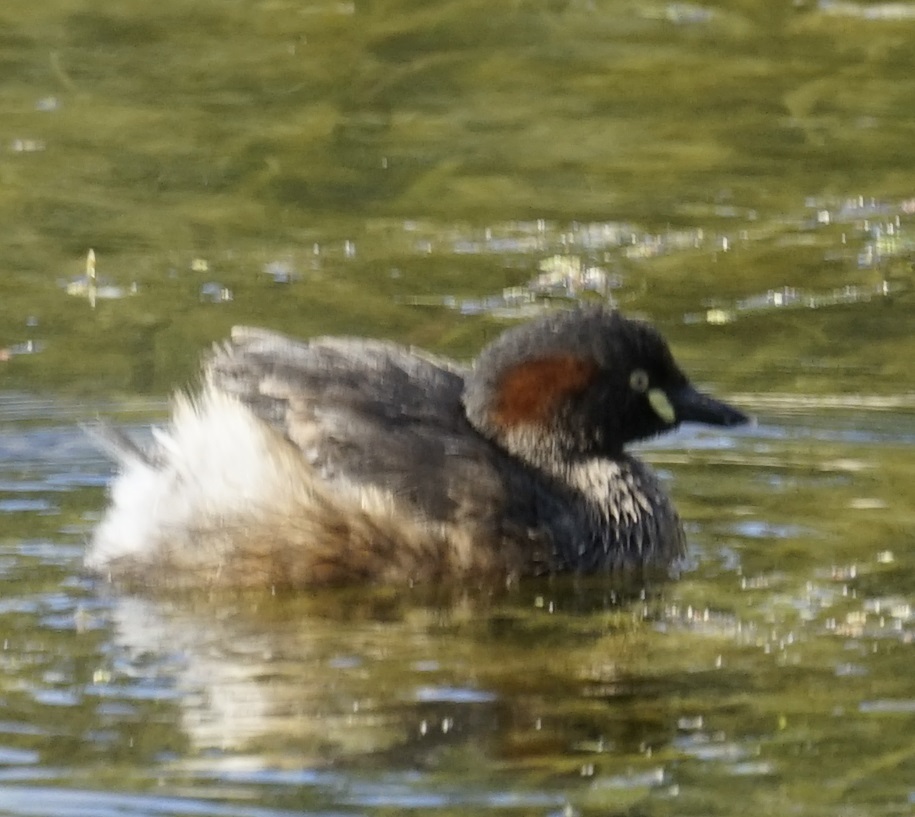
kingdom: Animalia
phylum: Chordata
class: Aves
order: Podicipediformes
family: Podicipedidae
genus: Tachybaptus
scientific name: Tachybaptus novaehollandiae
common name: Australasian grebe
